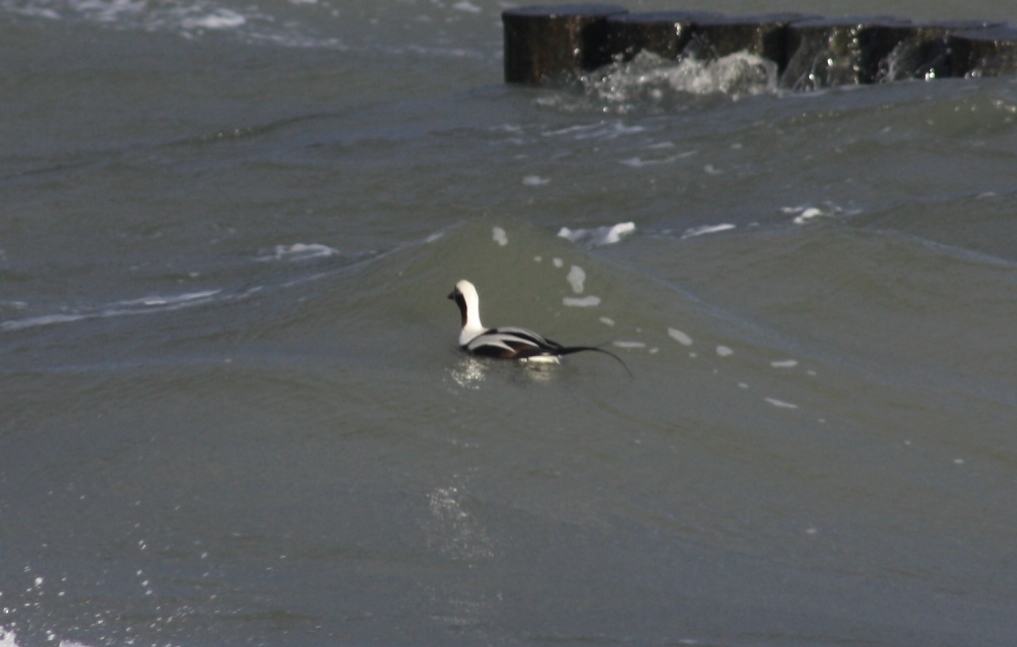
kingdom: Animalia
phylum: Chordata
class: Aves
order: Anseriformes
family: Anatidae
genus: Clangula
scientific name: Clangula hyemalis
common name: Long-tailed duck
